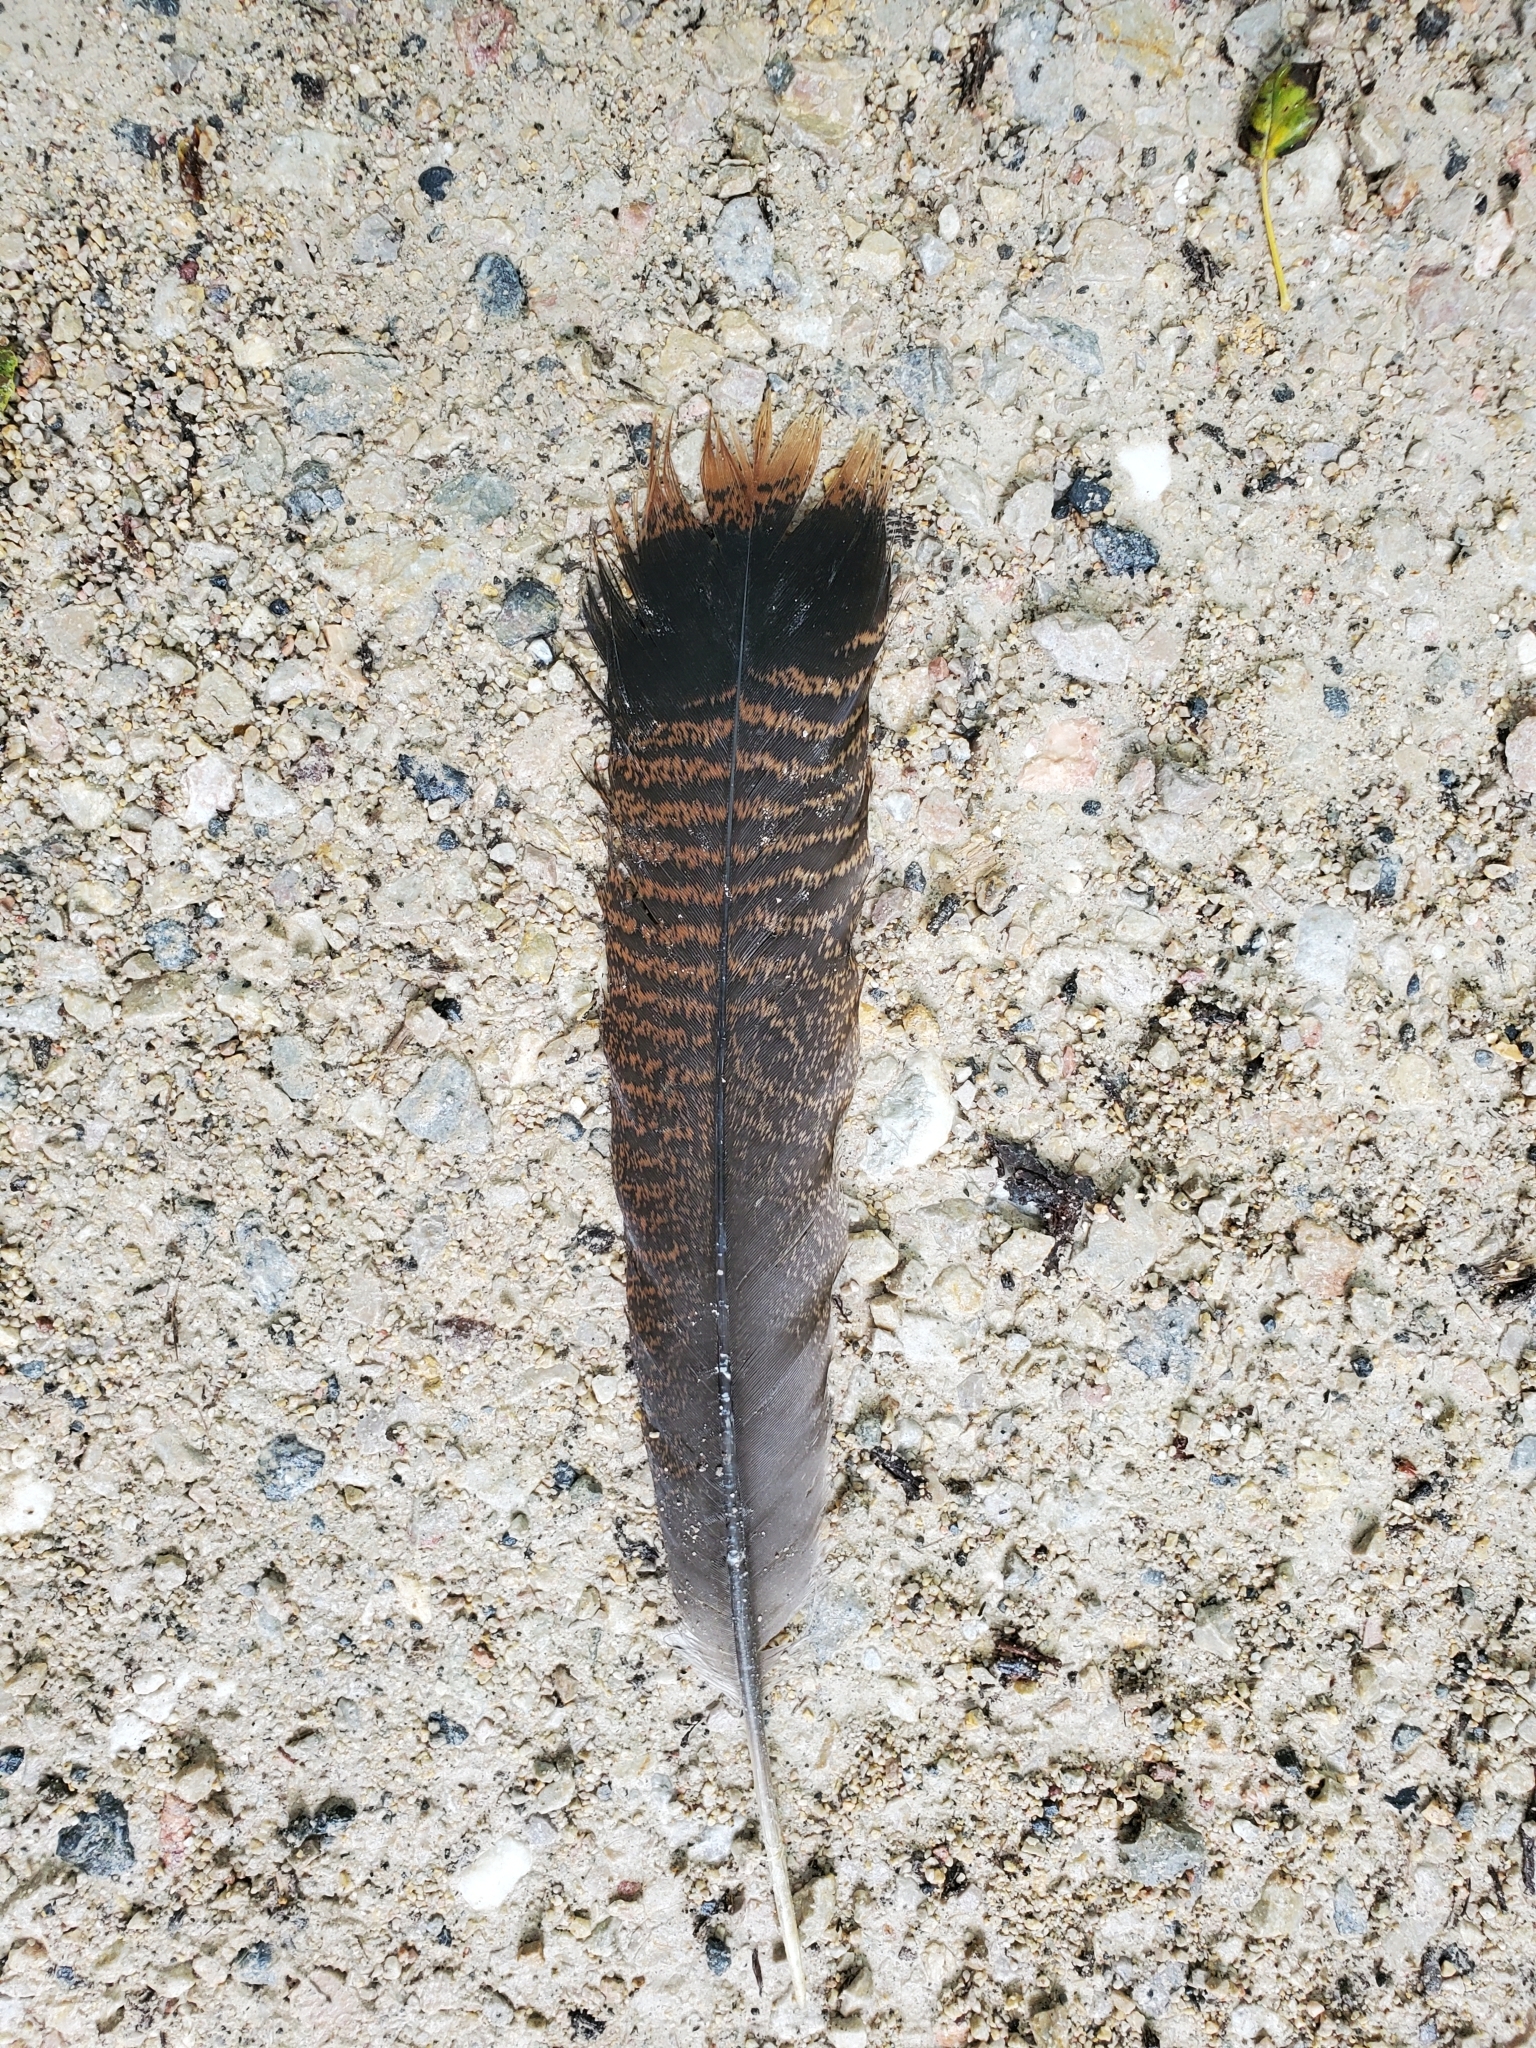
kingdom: Animalia
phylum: Chordata
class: Aves
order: Galliformes
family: Phasianidae
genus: Meleagris
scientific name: Meleagris gallopavo
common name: Wild turkey
